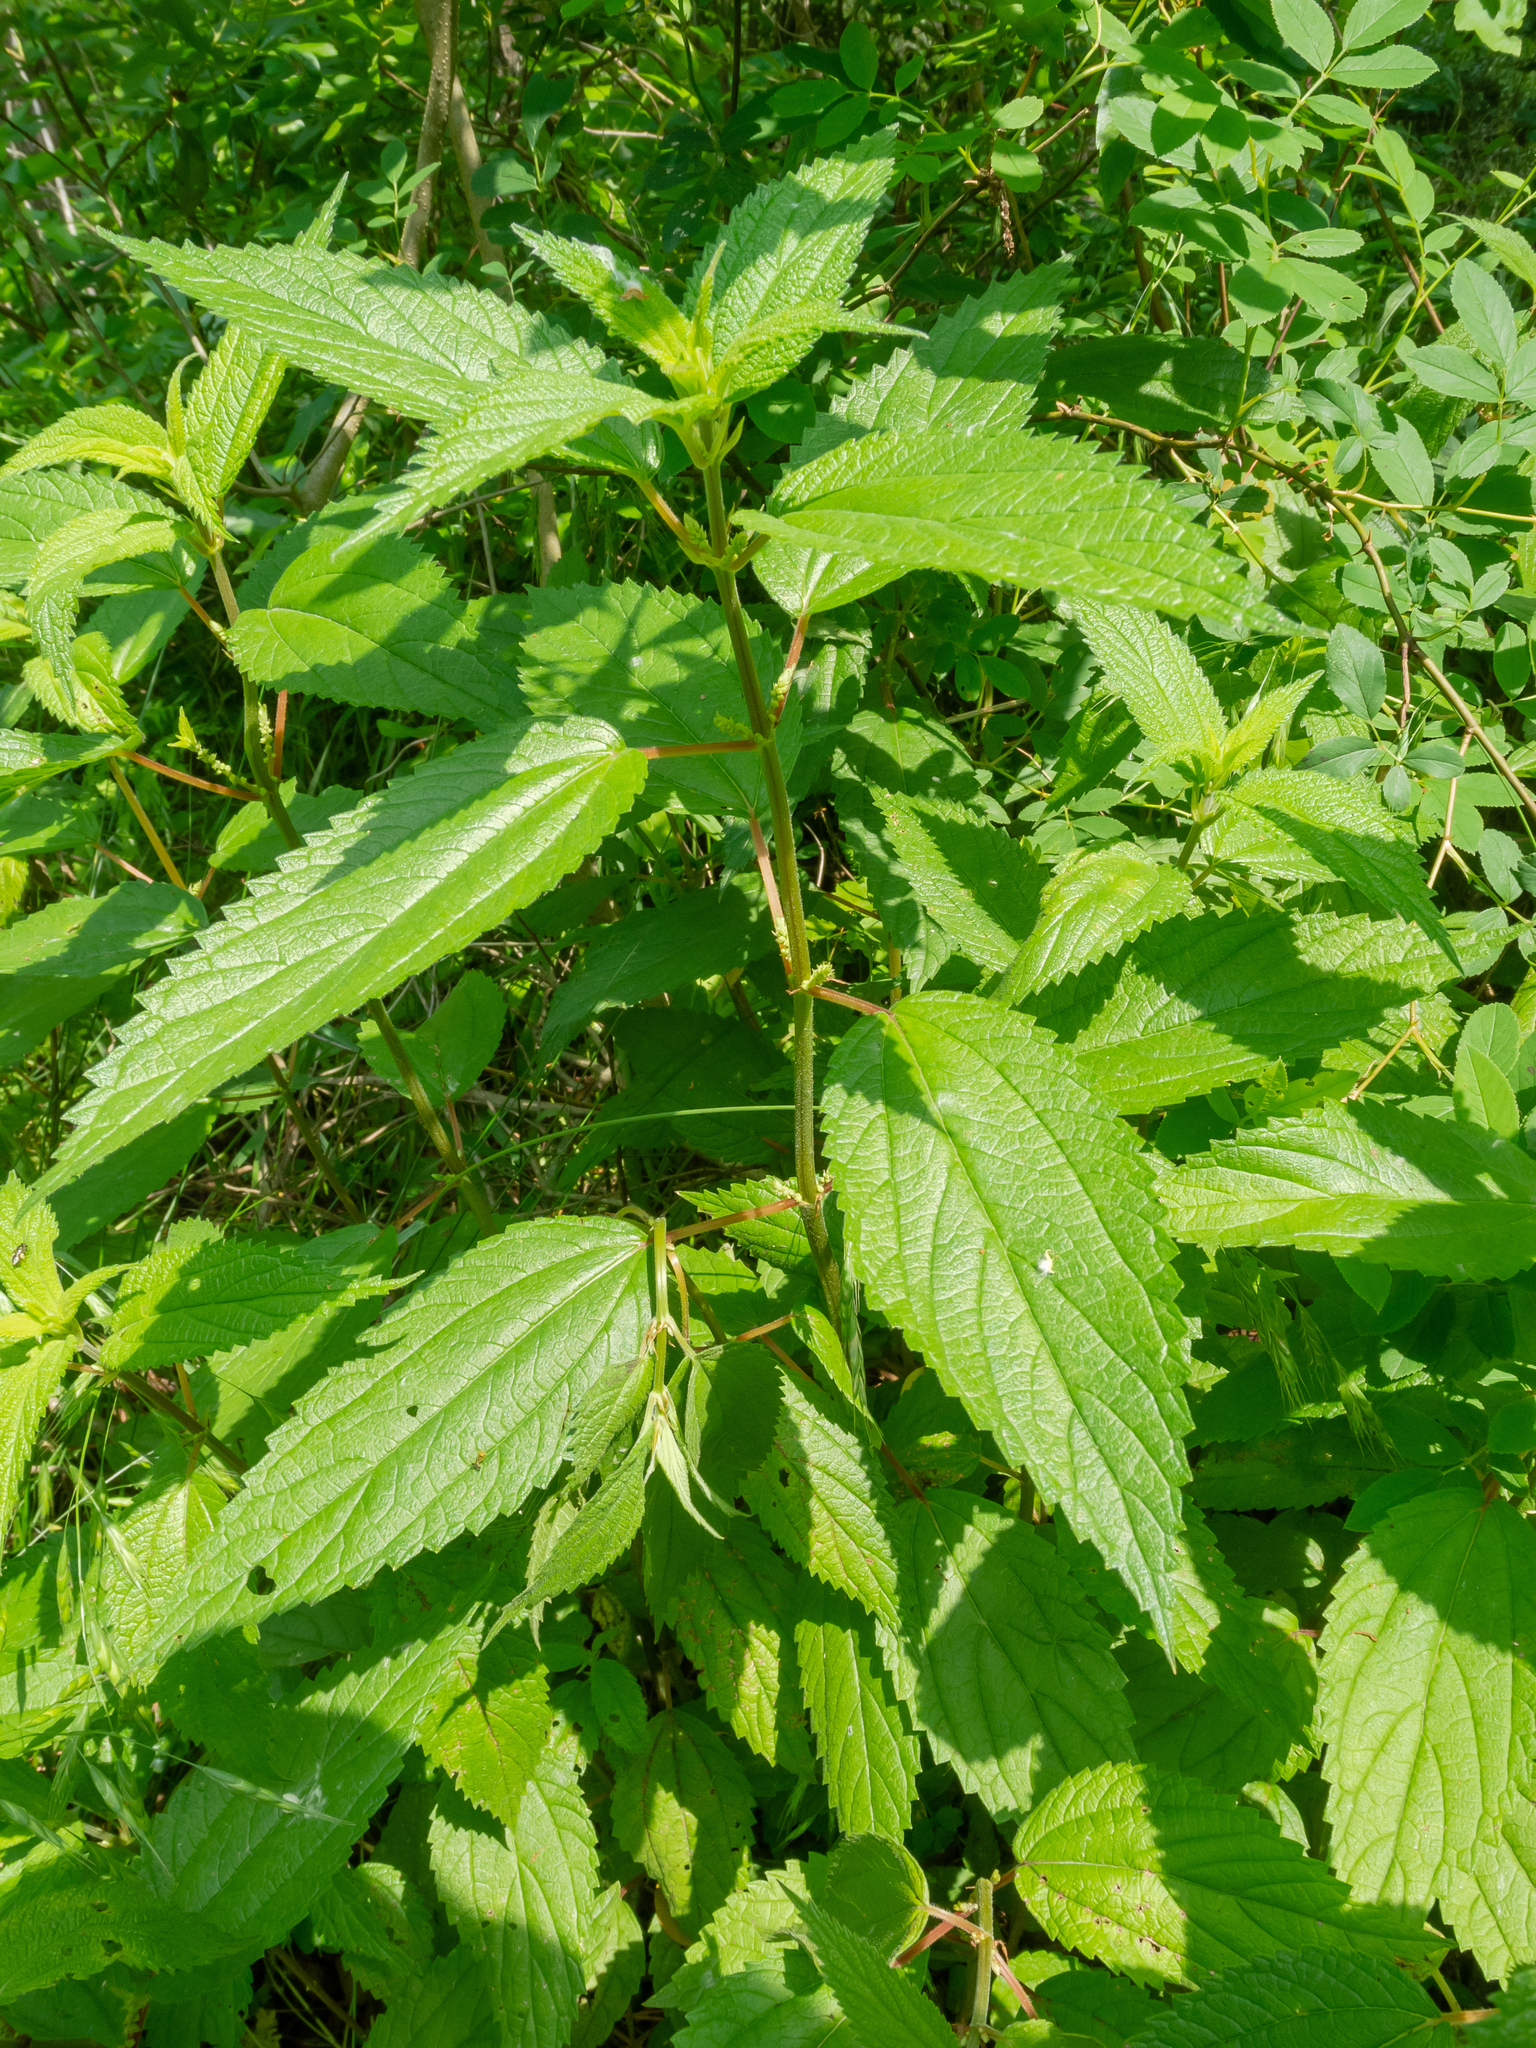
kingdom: Plantae
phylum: Tracheophyta
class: Magnoliopsida
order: Rosales
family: Urticaceae
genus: Boehmeria
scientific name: Boehmeria cylindrica
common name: Bog-hemp
